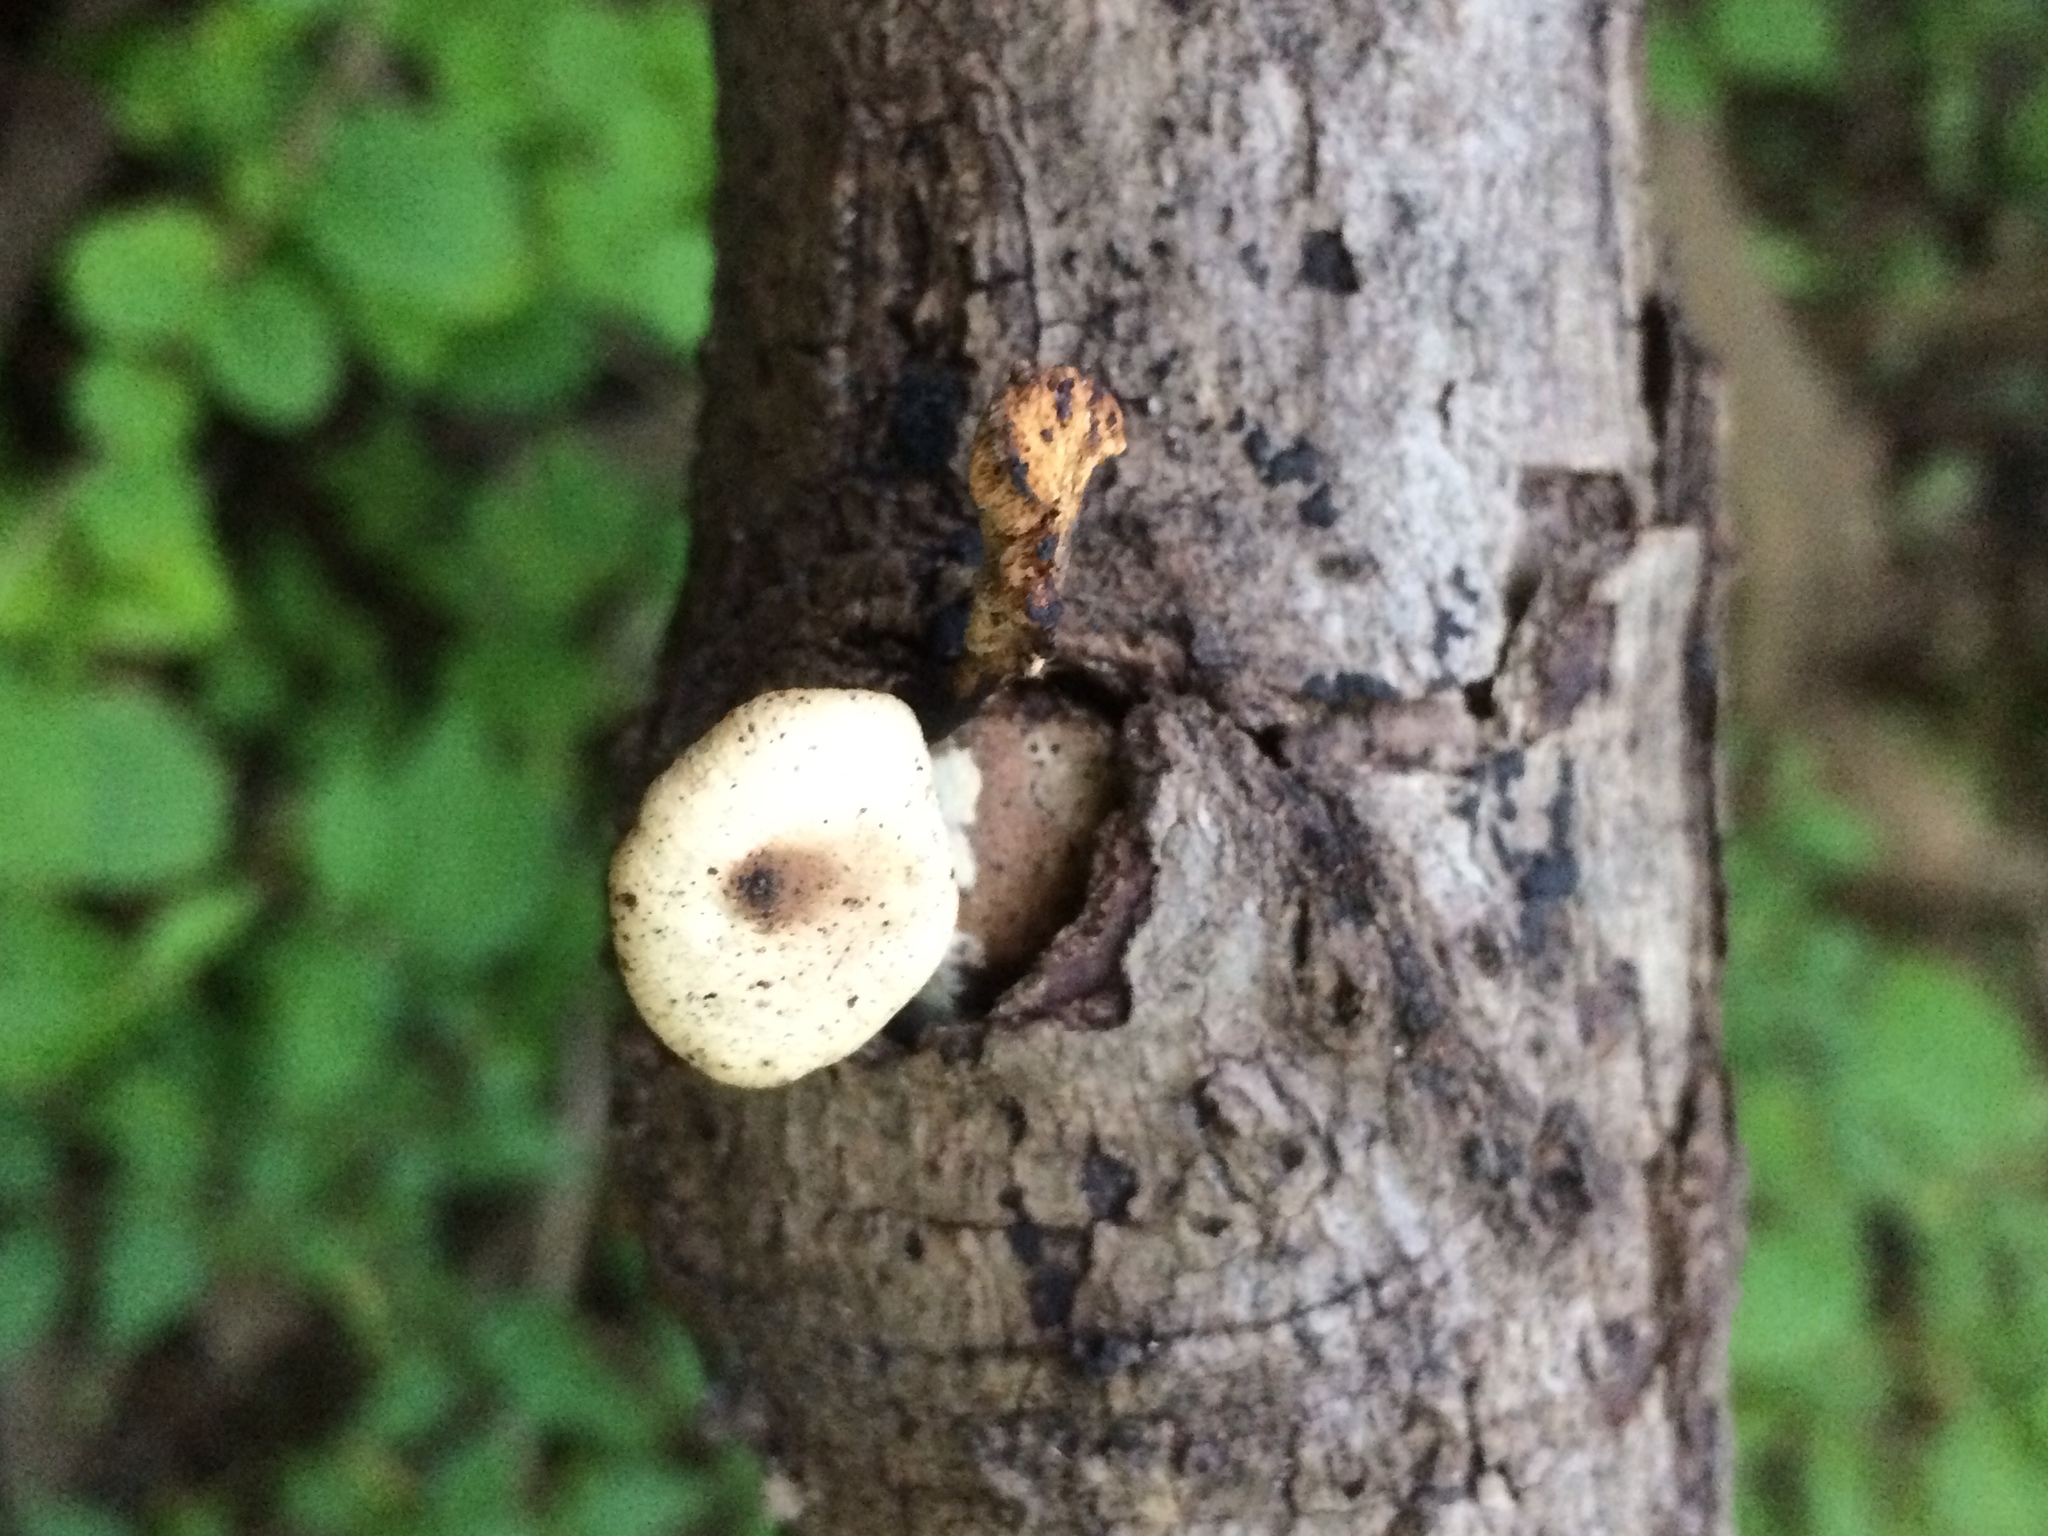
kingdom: Fungi
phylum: Basidiomycota
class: Agaricomycetes
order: Polyporales
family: Polyporaceae
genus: Cerioporus
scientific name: Cerioporus varius
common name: Elegant polypore
